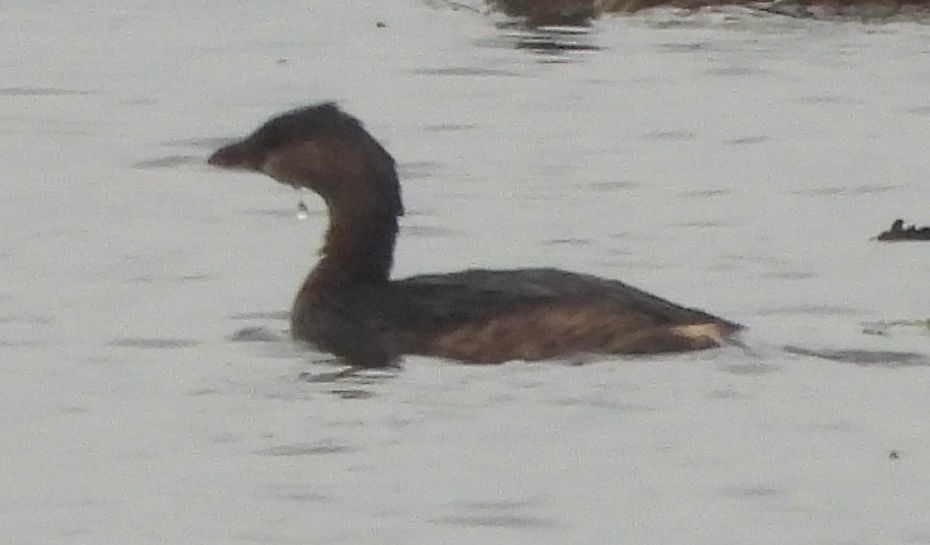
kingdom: Animalia
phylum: Chordata
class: Aves
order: Podicipediformes
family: Podicipedidae
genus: Podilymbus
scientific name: Podilymbus podiceps
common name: Pied-billed grebe
